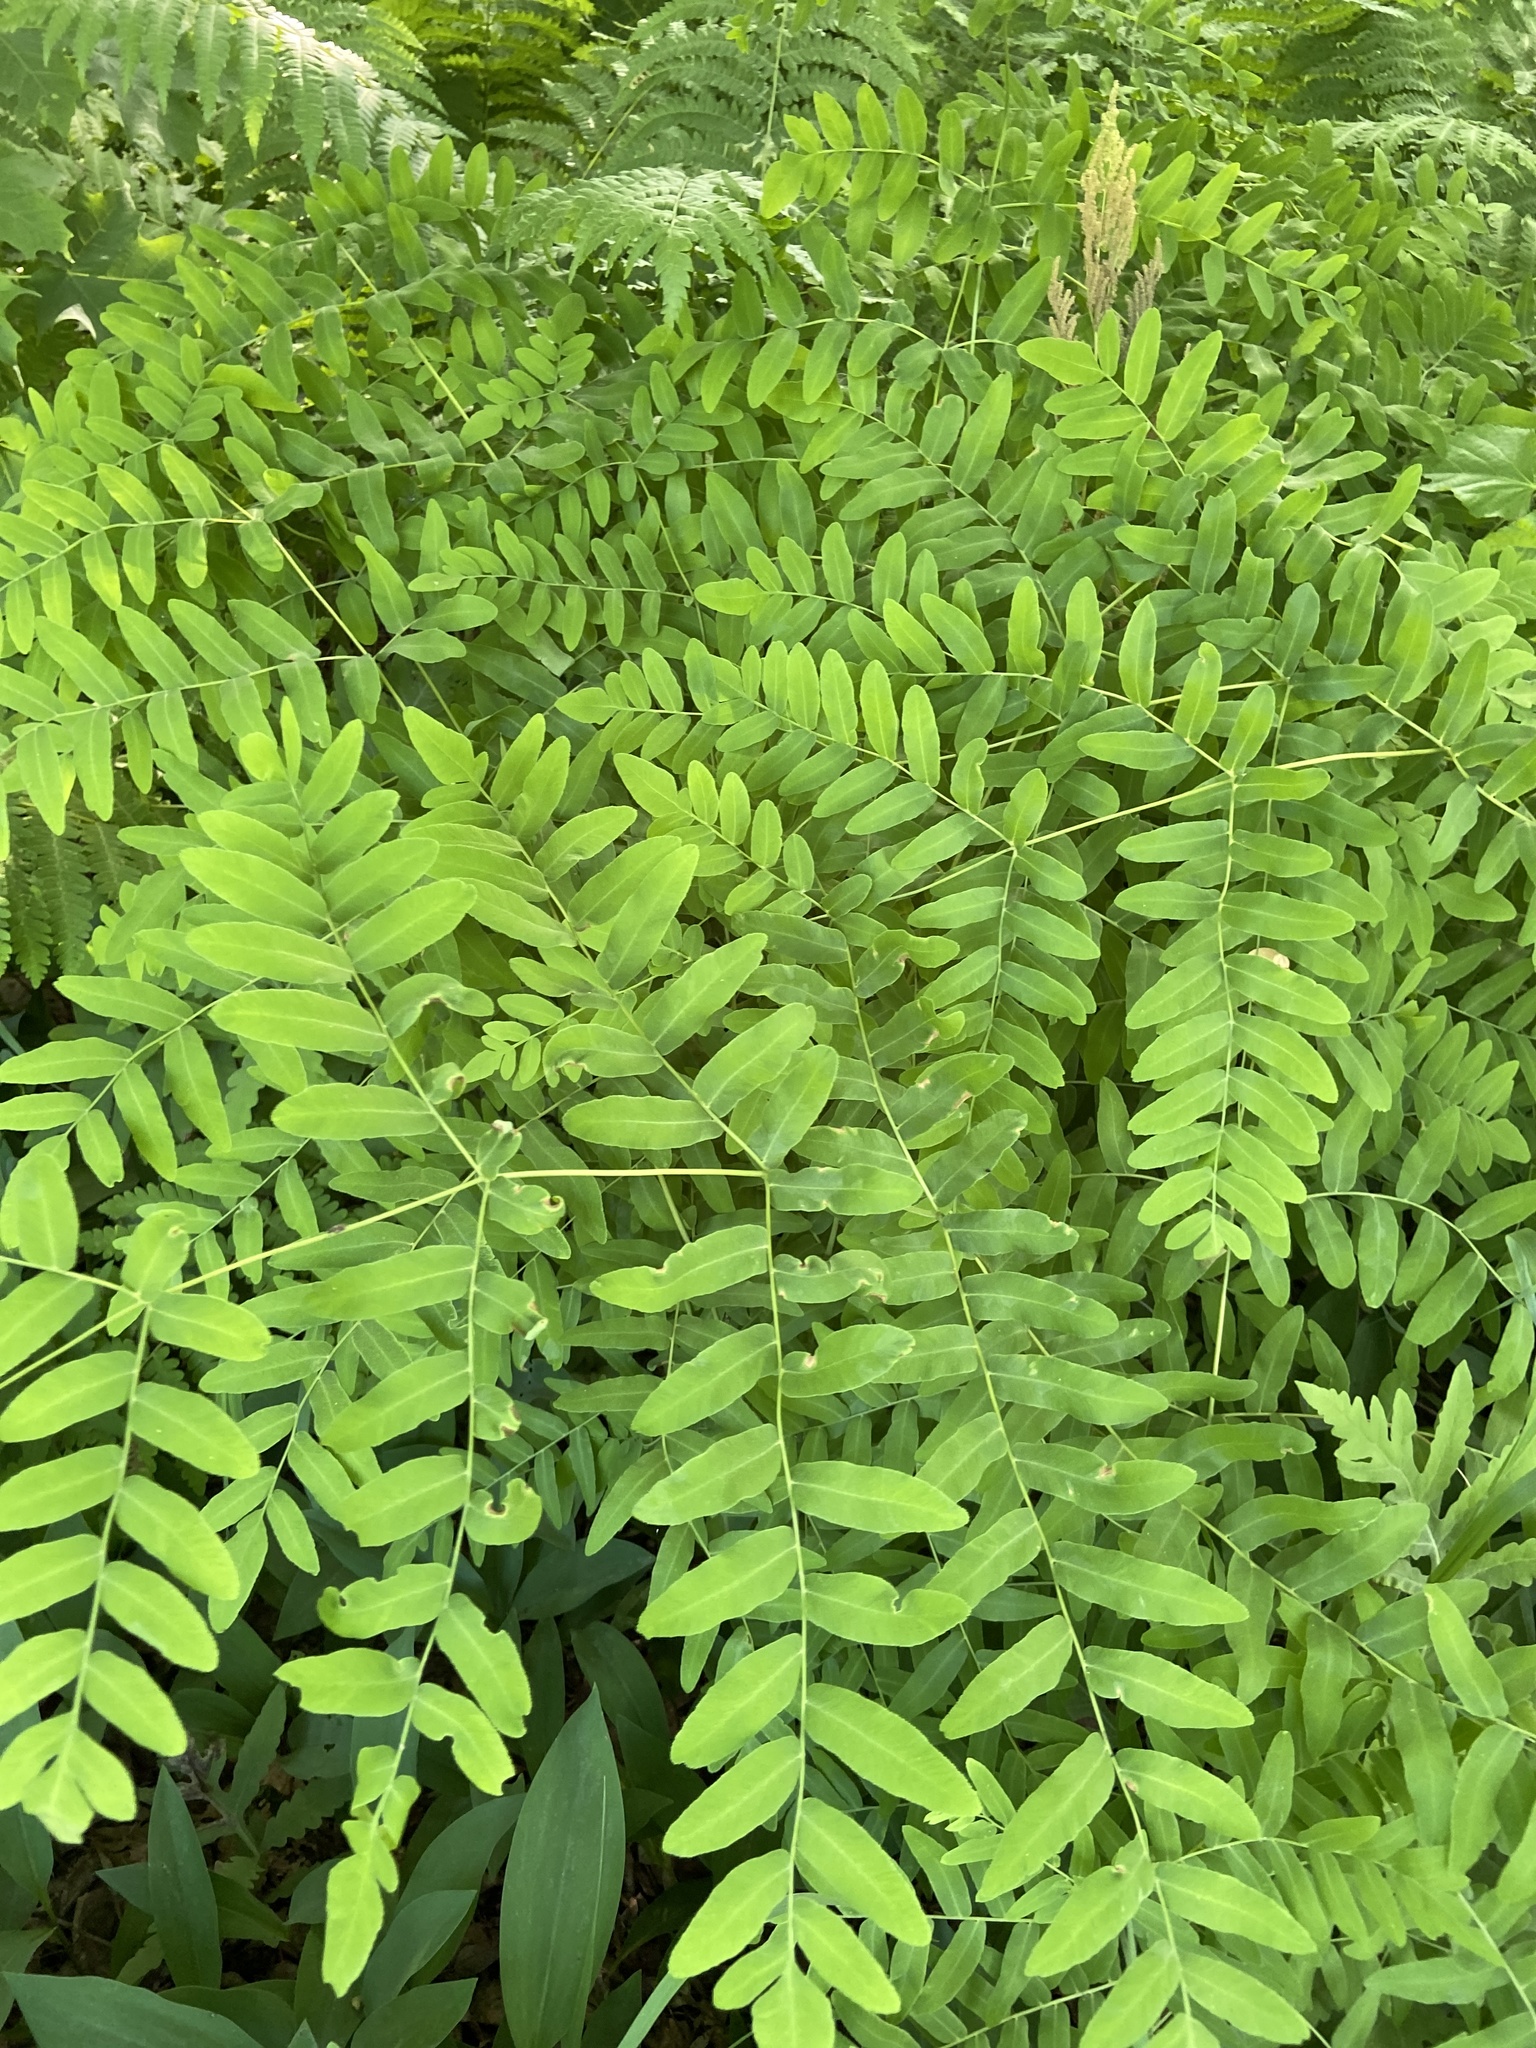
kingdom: Plantae
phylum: Tracheophyta
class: Polypodiopsida
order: Osmundales
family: Osmundaceae
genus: Osmunda
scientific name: Osmunda spectabilis
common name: American royal fern
